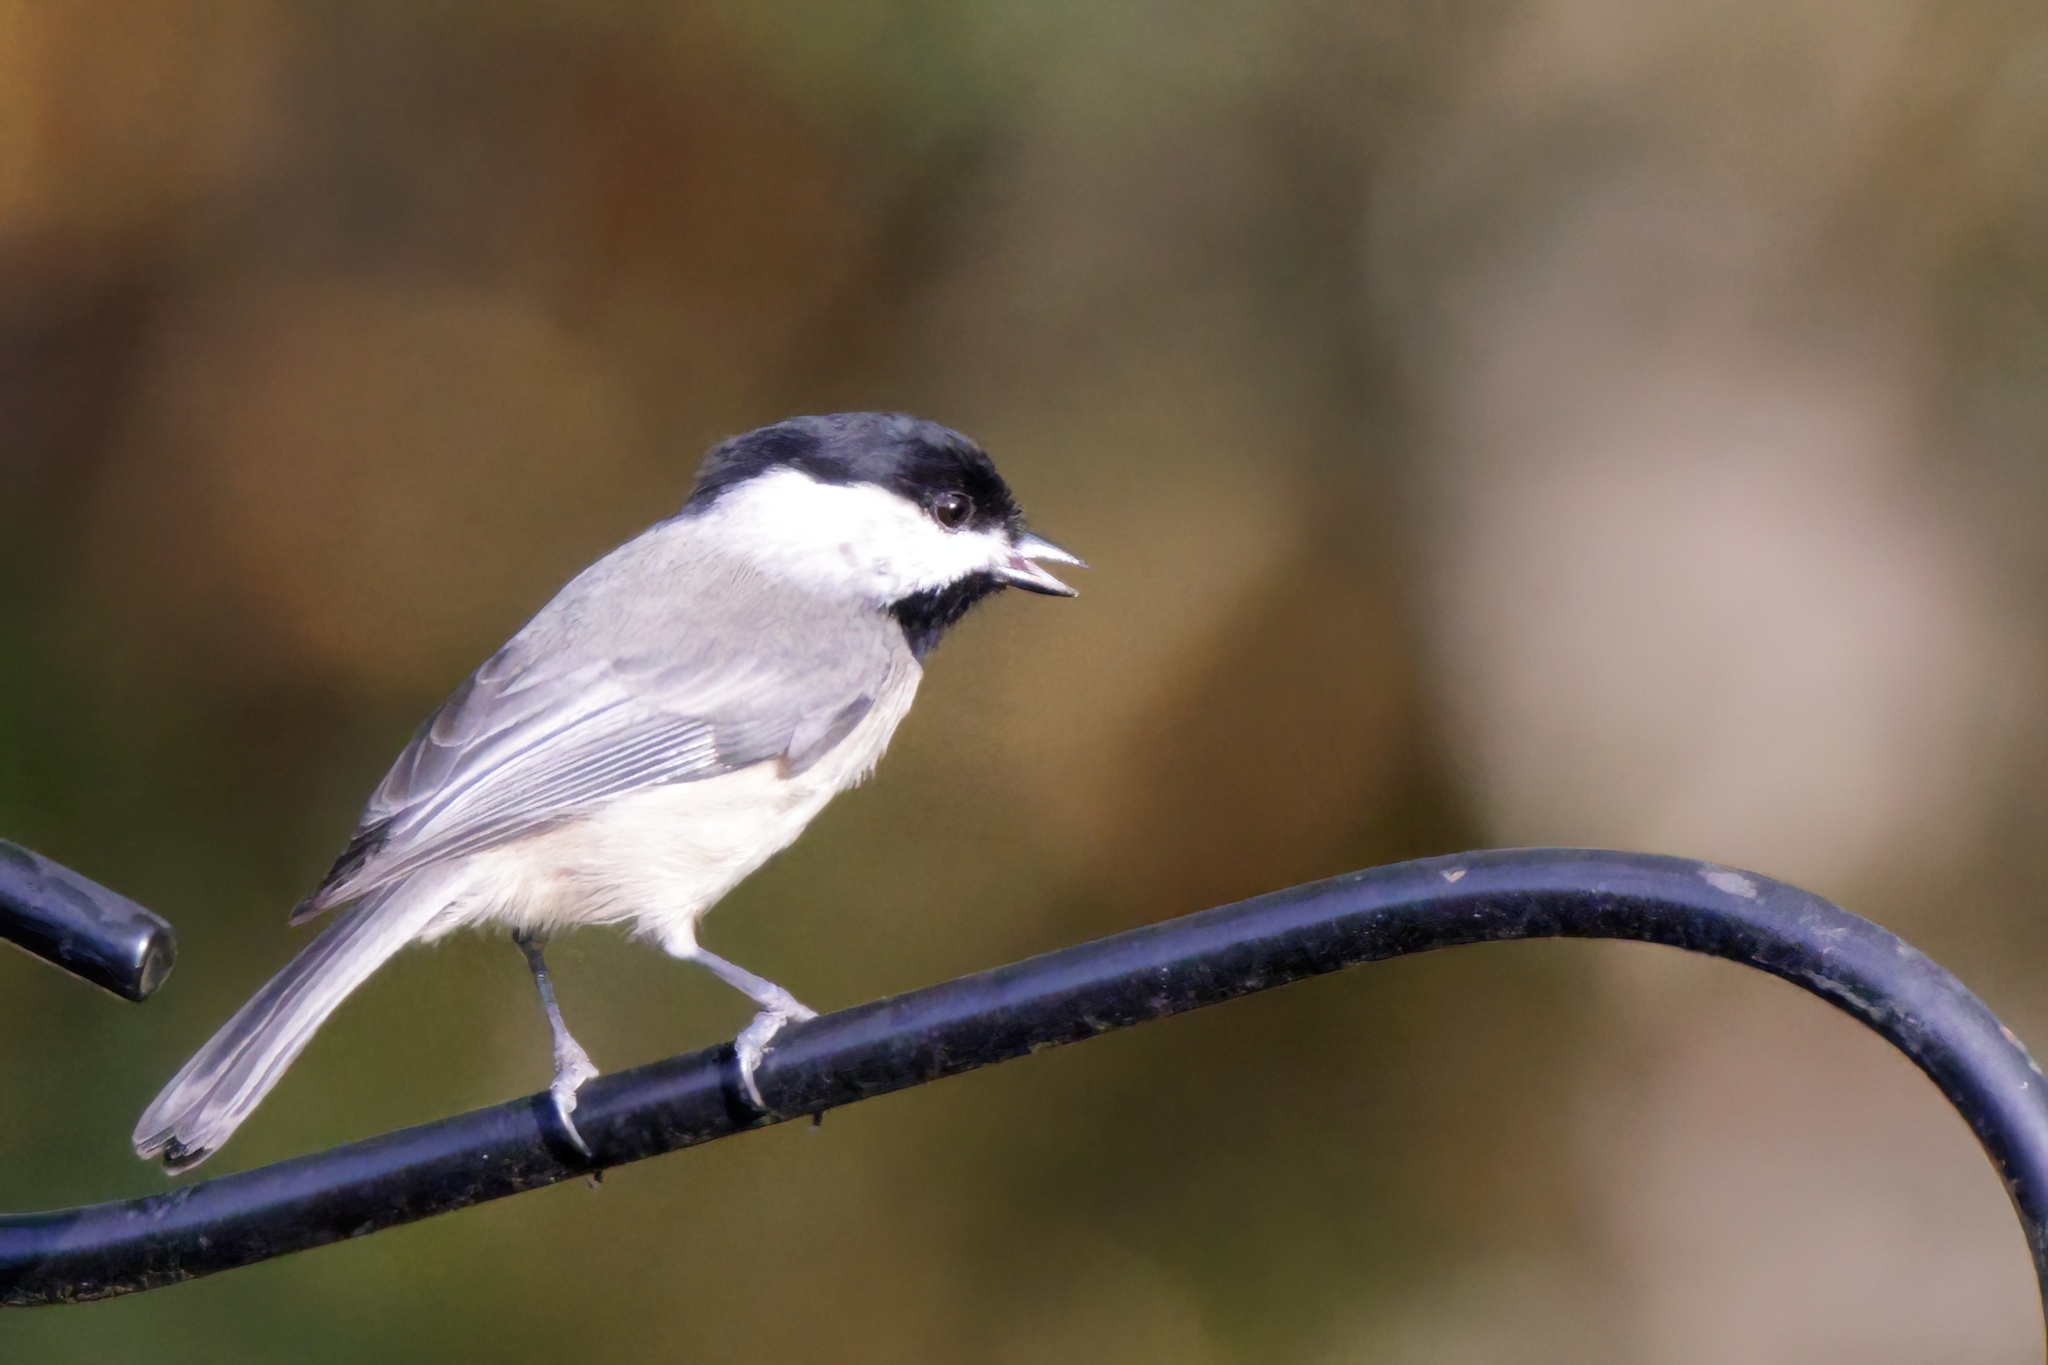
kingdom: Animalia
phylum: Chordata
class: Aves
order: Passeriformes
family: Paridae
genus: Poecile
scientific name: Poecile carolinensis
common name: Carolina chickadee
